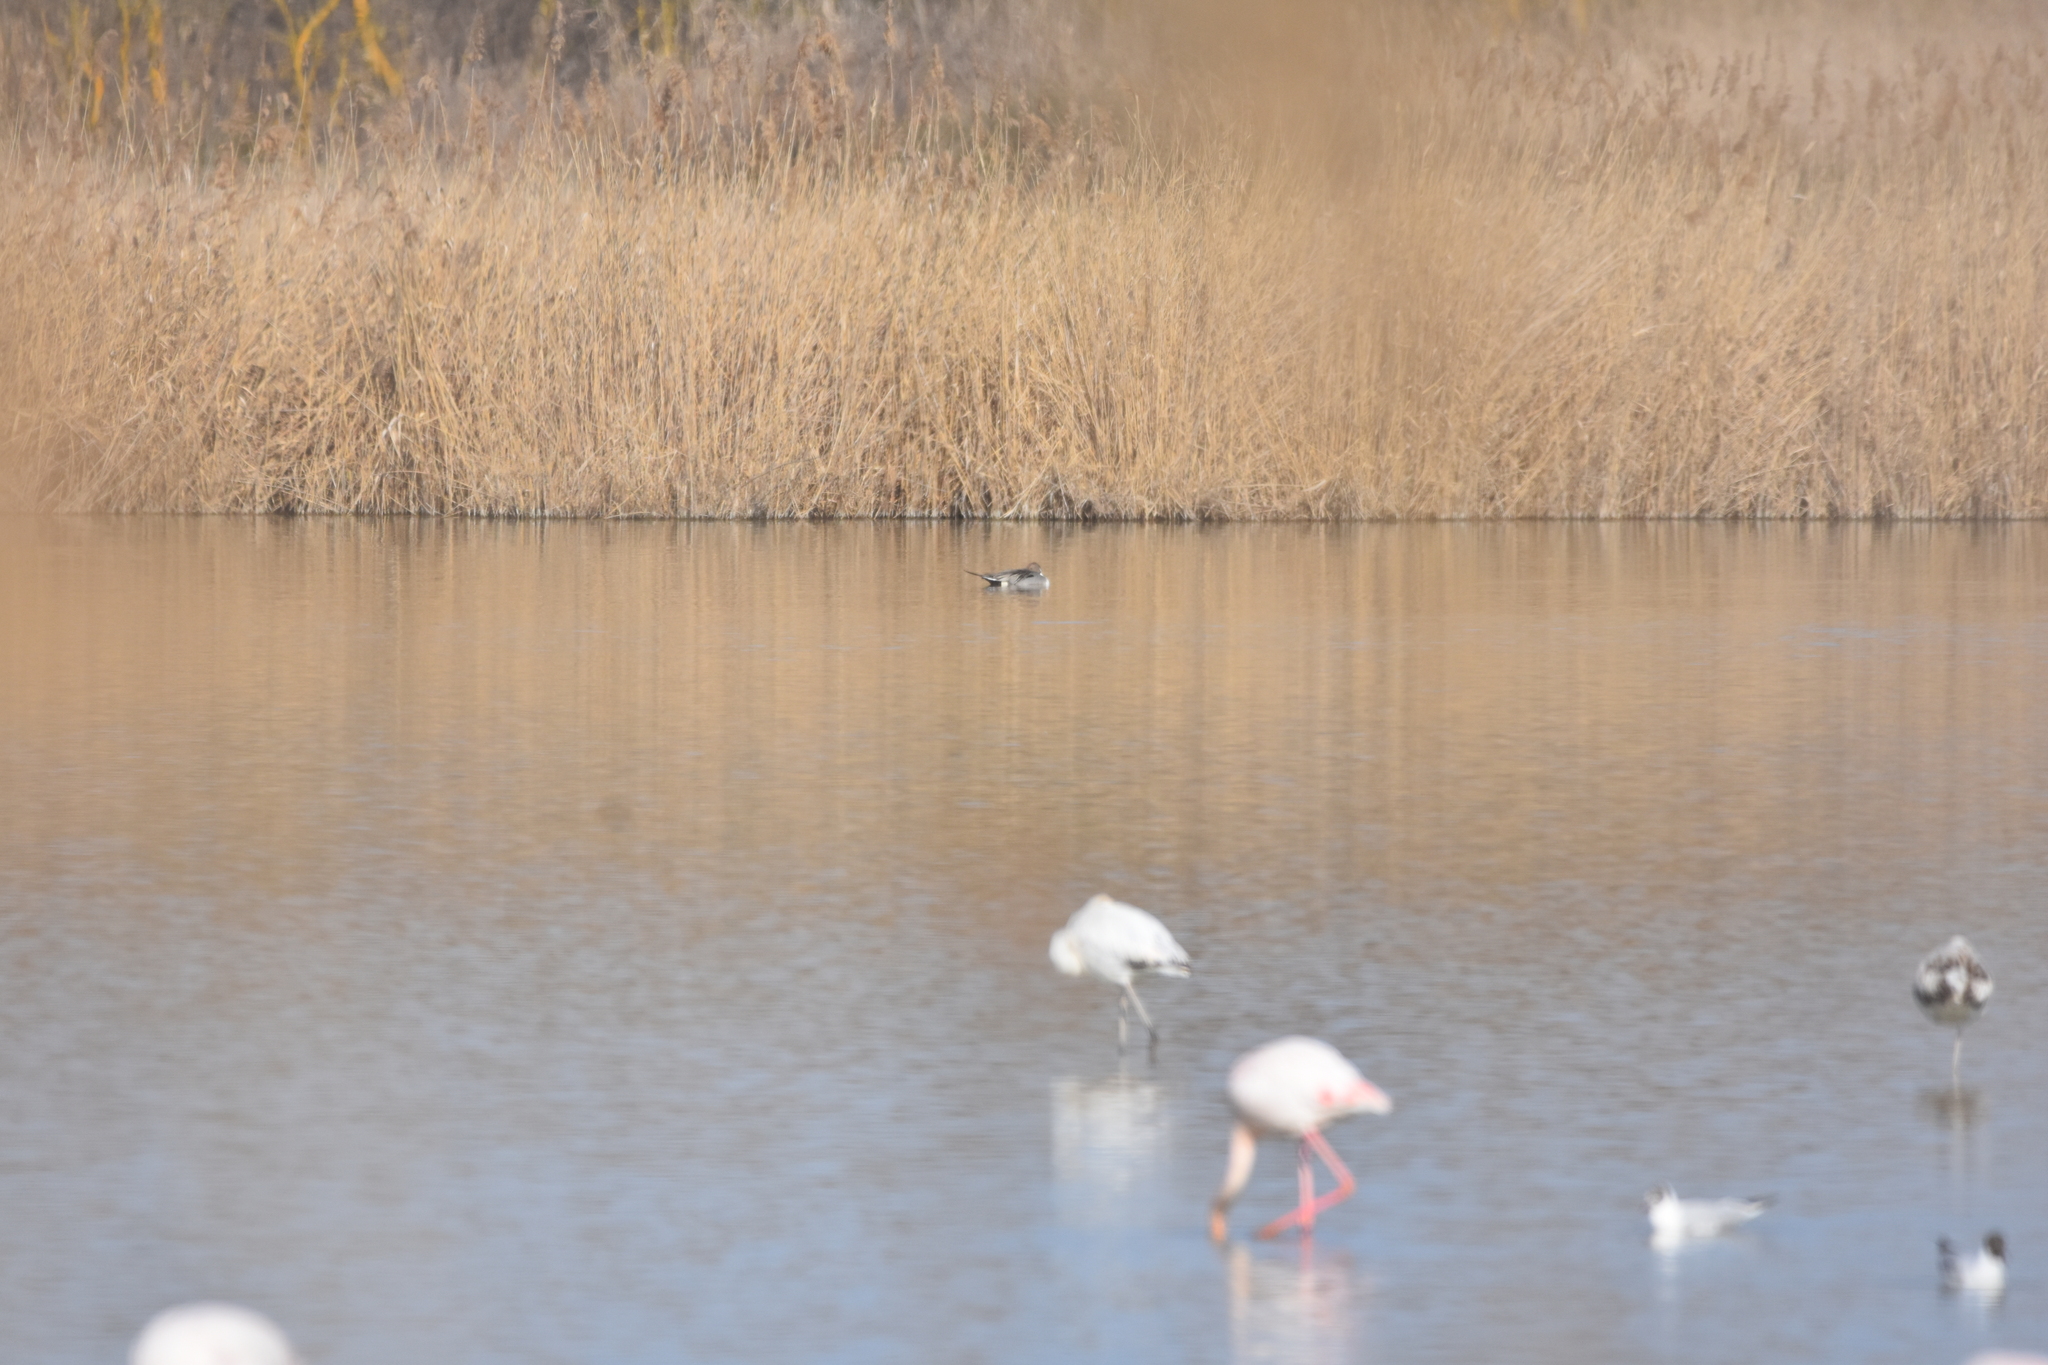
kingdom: Animalia
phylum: Chordata
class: Aves
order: Anseriformes
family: Anatidae
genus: Anas
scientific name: Anas acuta
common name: Northern pintail
